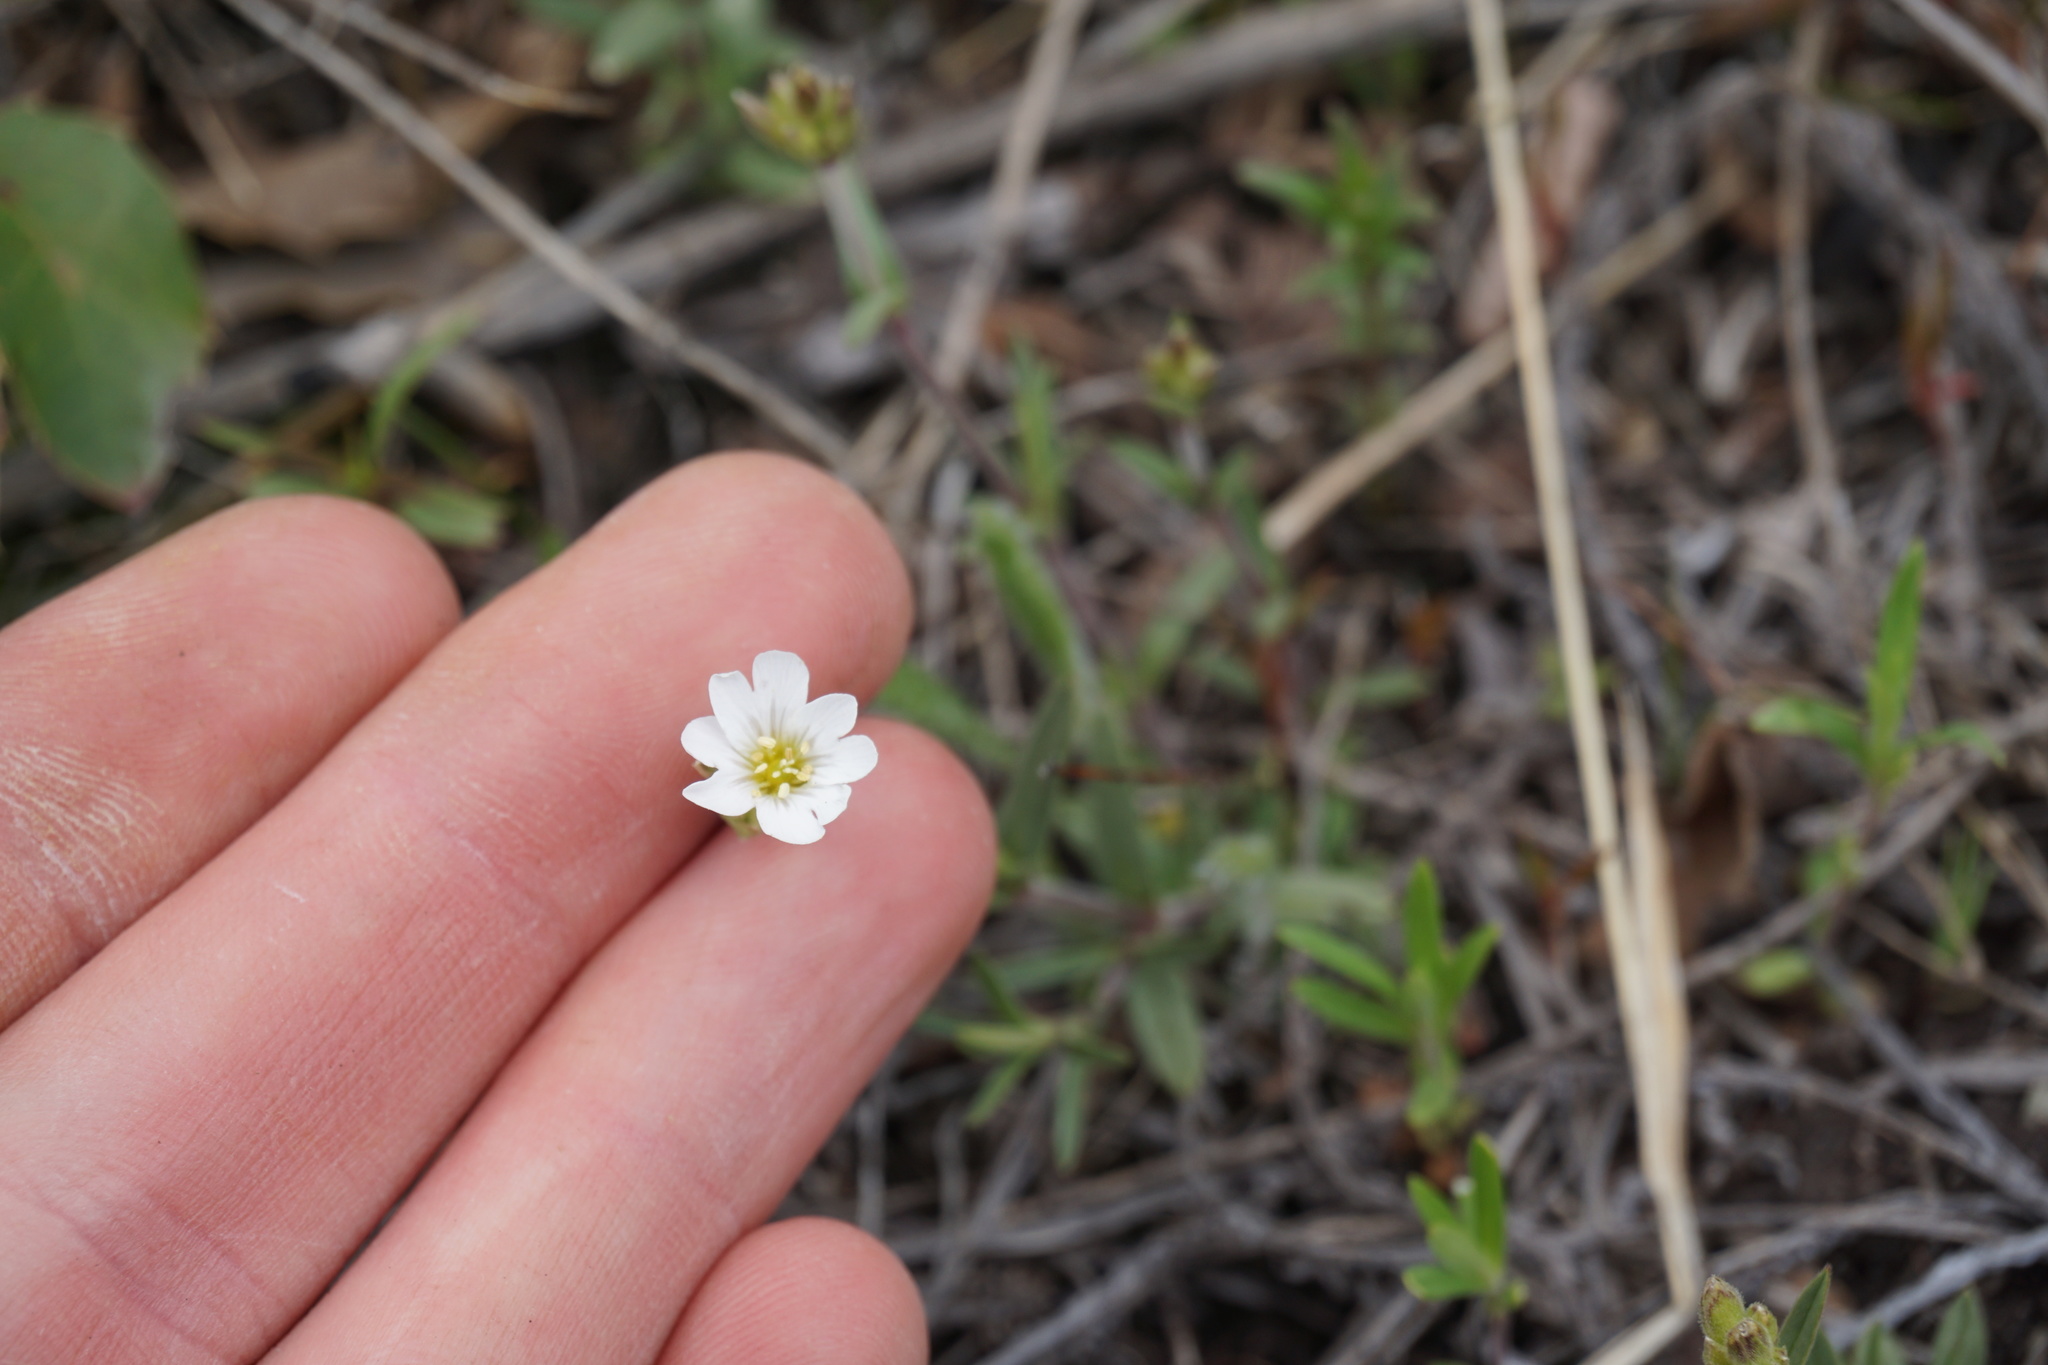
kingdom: Plantae
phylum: Tracheophyta
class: Magnoliopsida
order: Caryophyllales
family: Caryophyllaceae
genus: Cerastium
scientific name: Cerastium arvense
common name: Field mouse-ear
